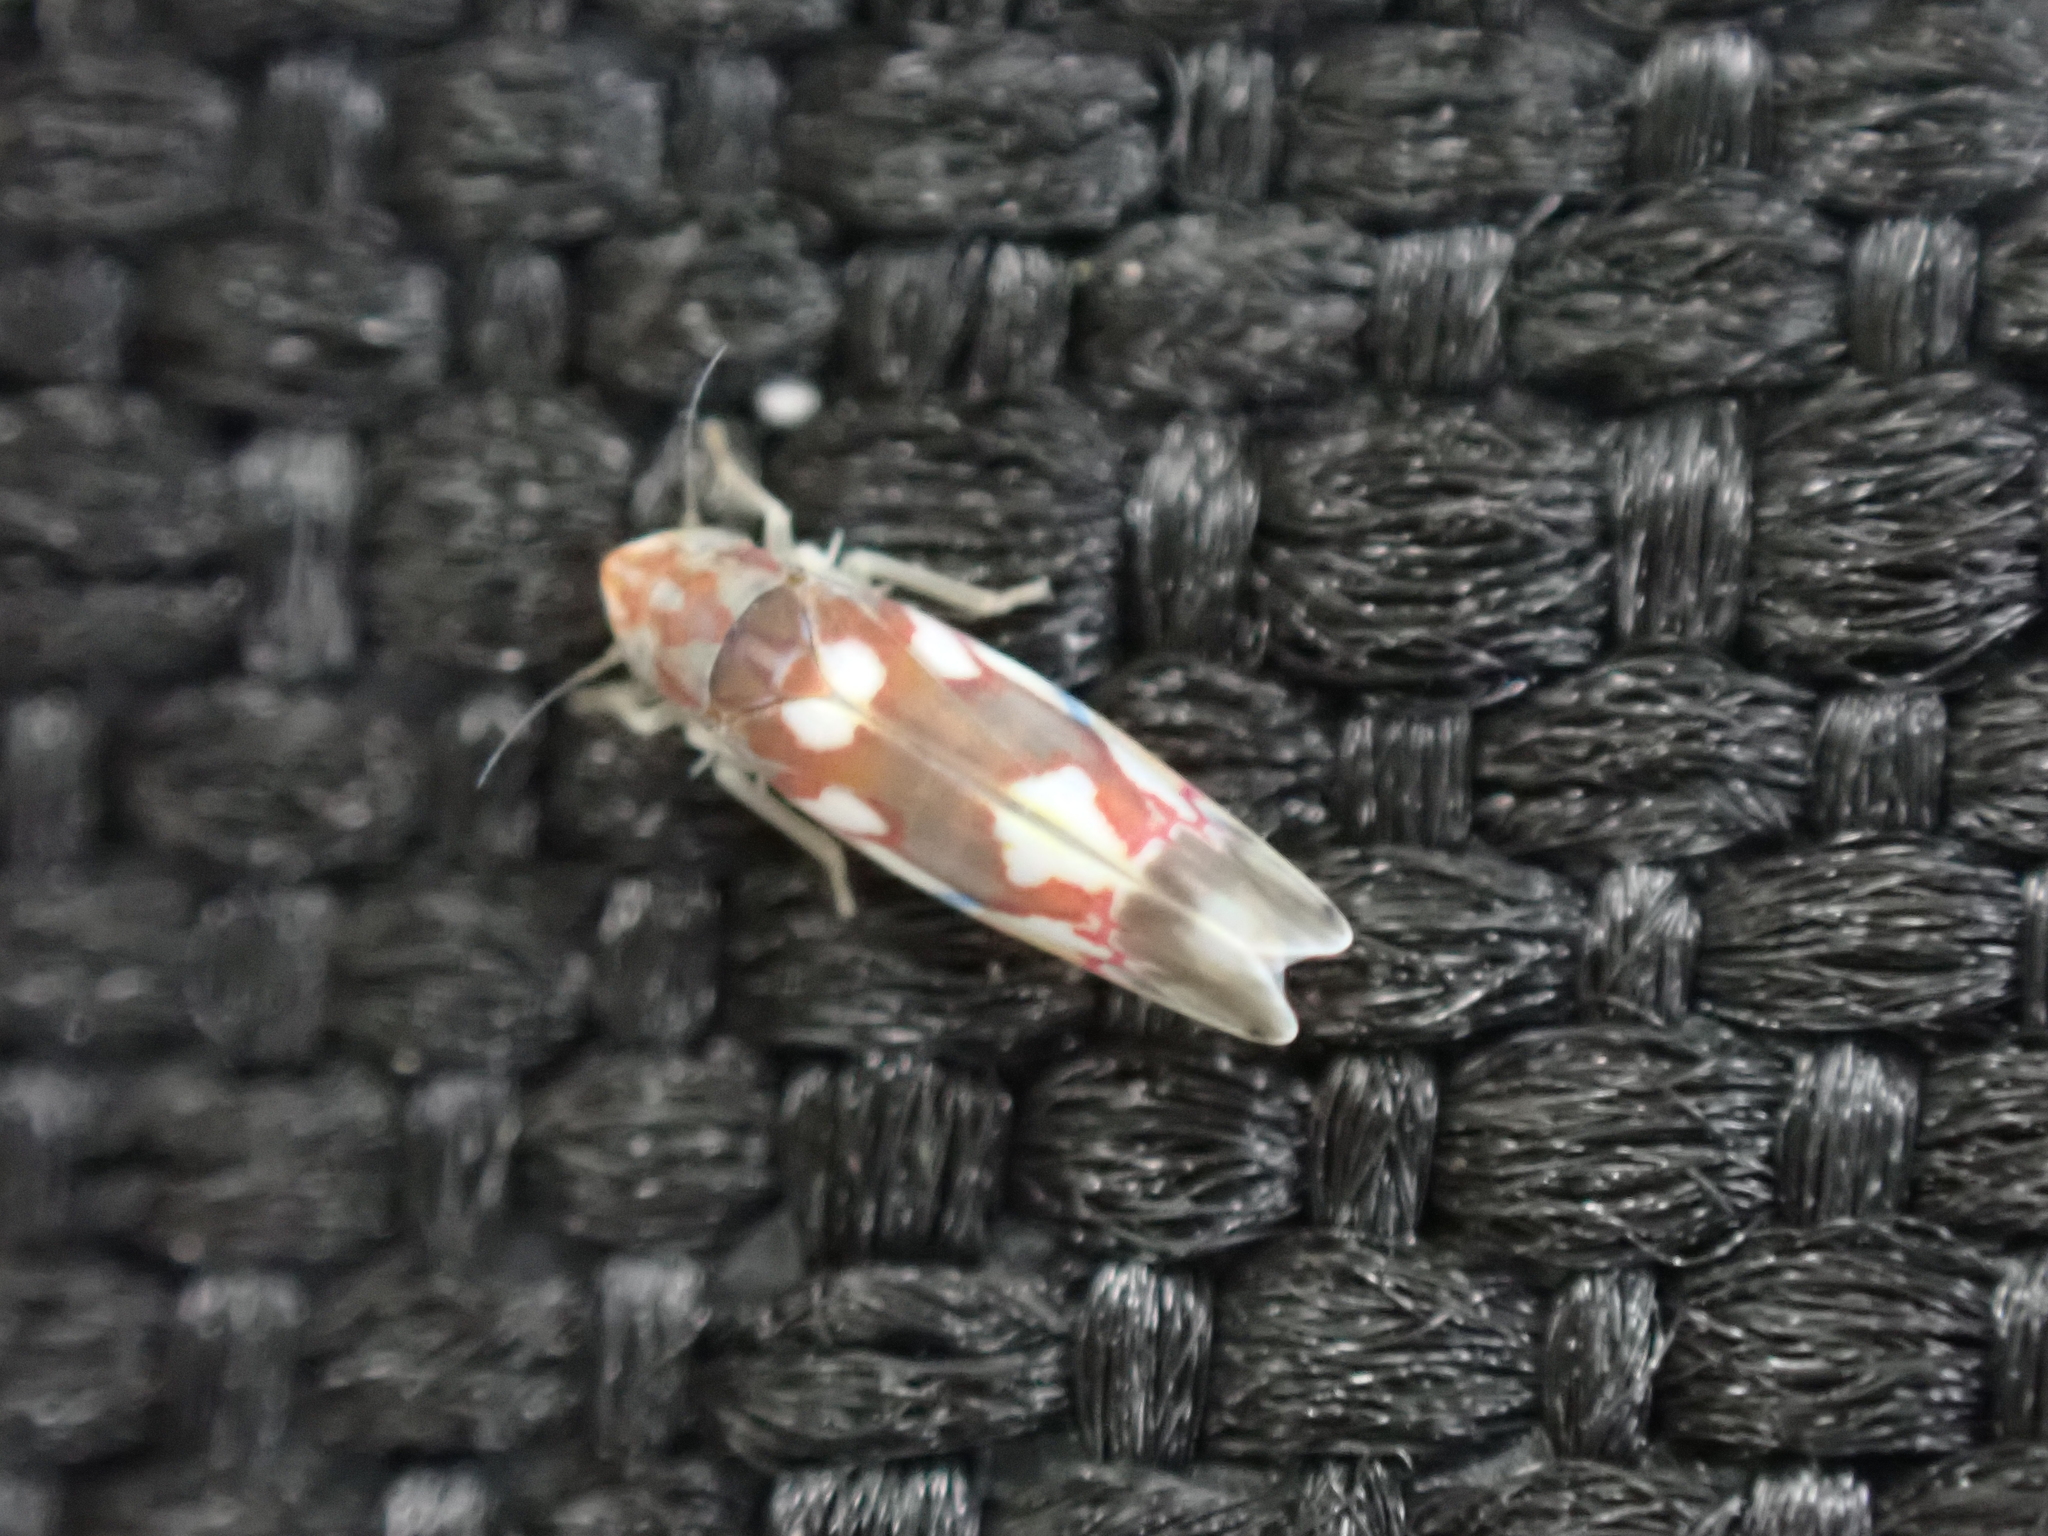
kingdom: Animalia
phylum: Arthropoda
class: Insecta
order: Hemiptera
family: Cicadellidae
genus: Erythroneura
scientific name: Erythroneura elegans
